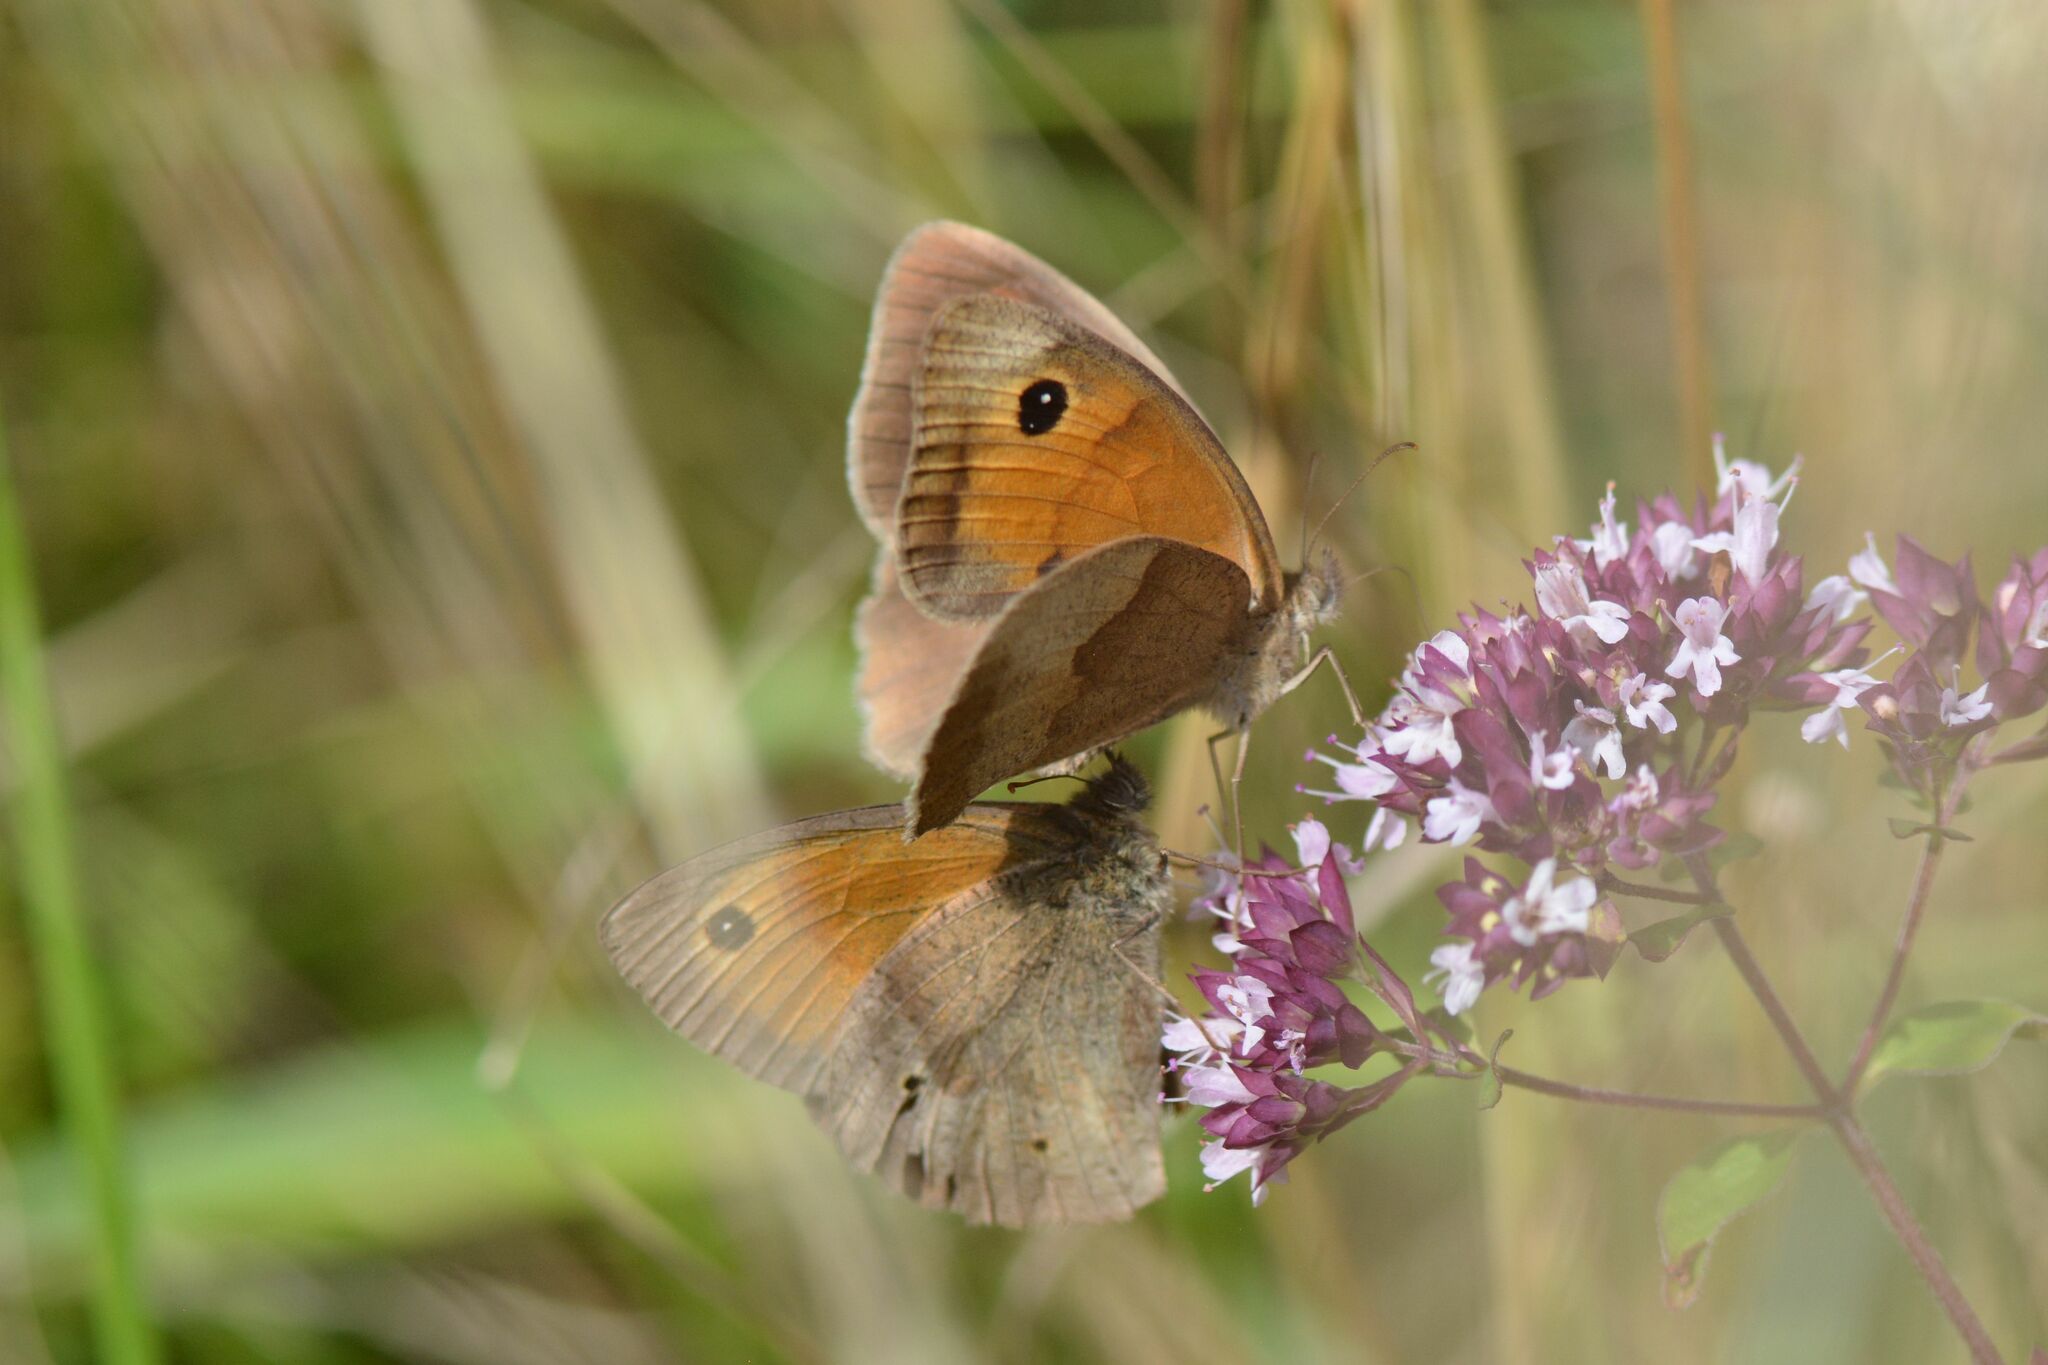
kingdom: Animalia
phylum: Arthropoda
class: Insecta
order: Lepidoptera
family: Nymphalidae
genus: Maniola
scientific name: Maniola jurtina
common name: Meadow brown
